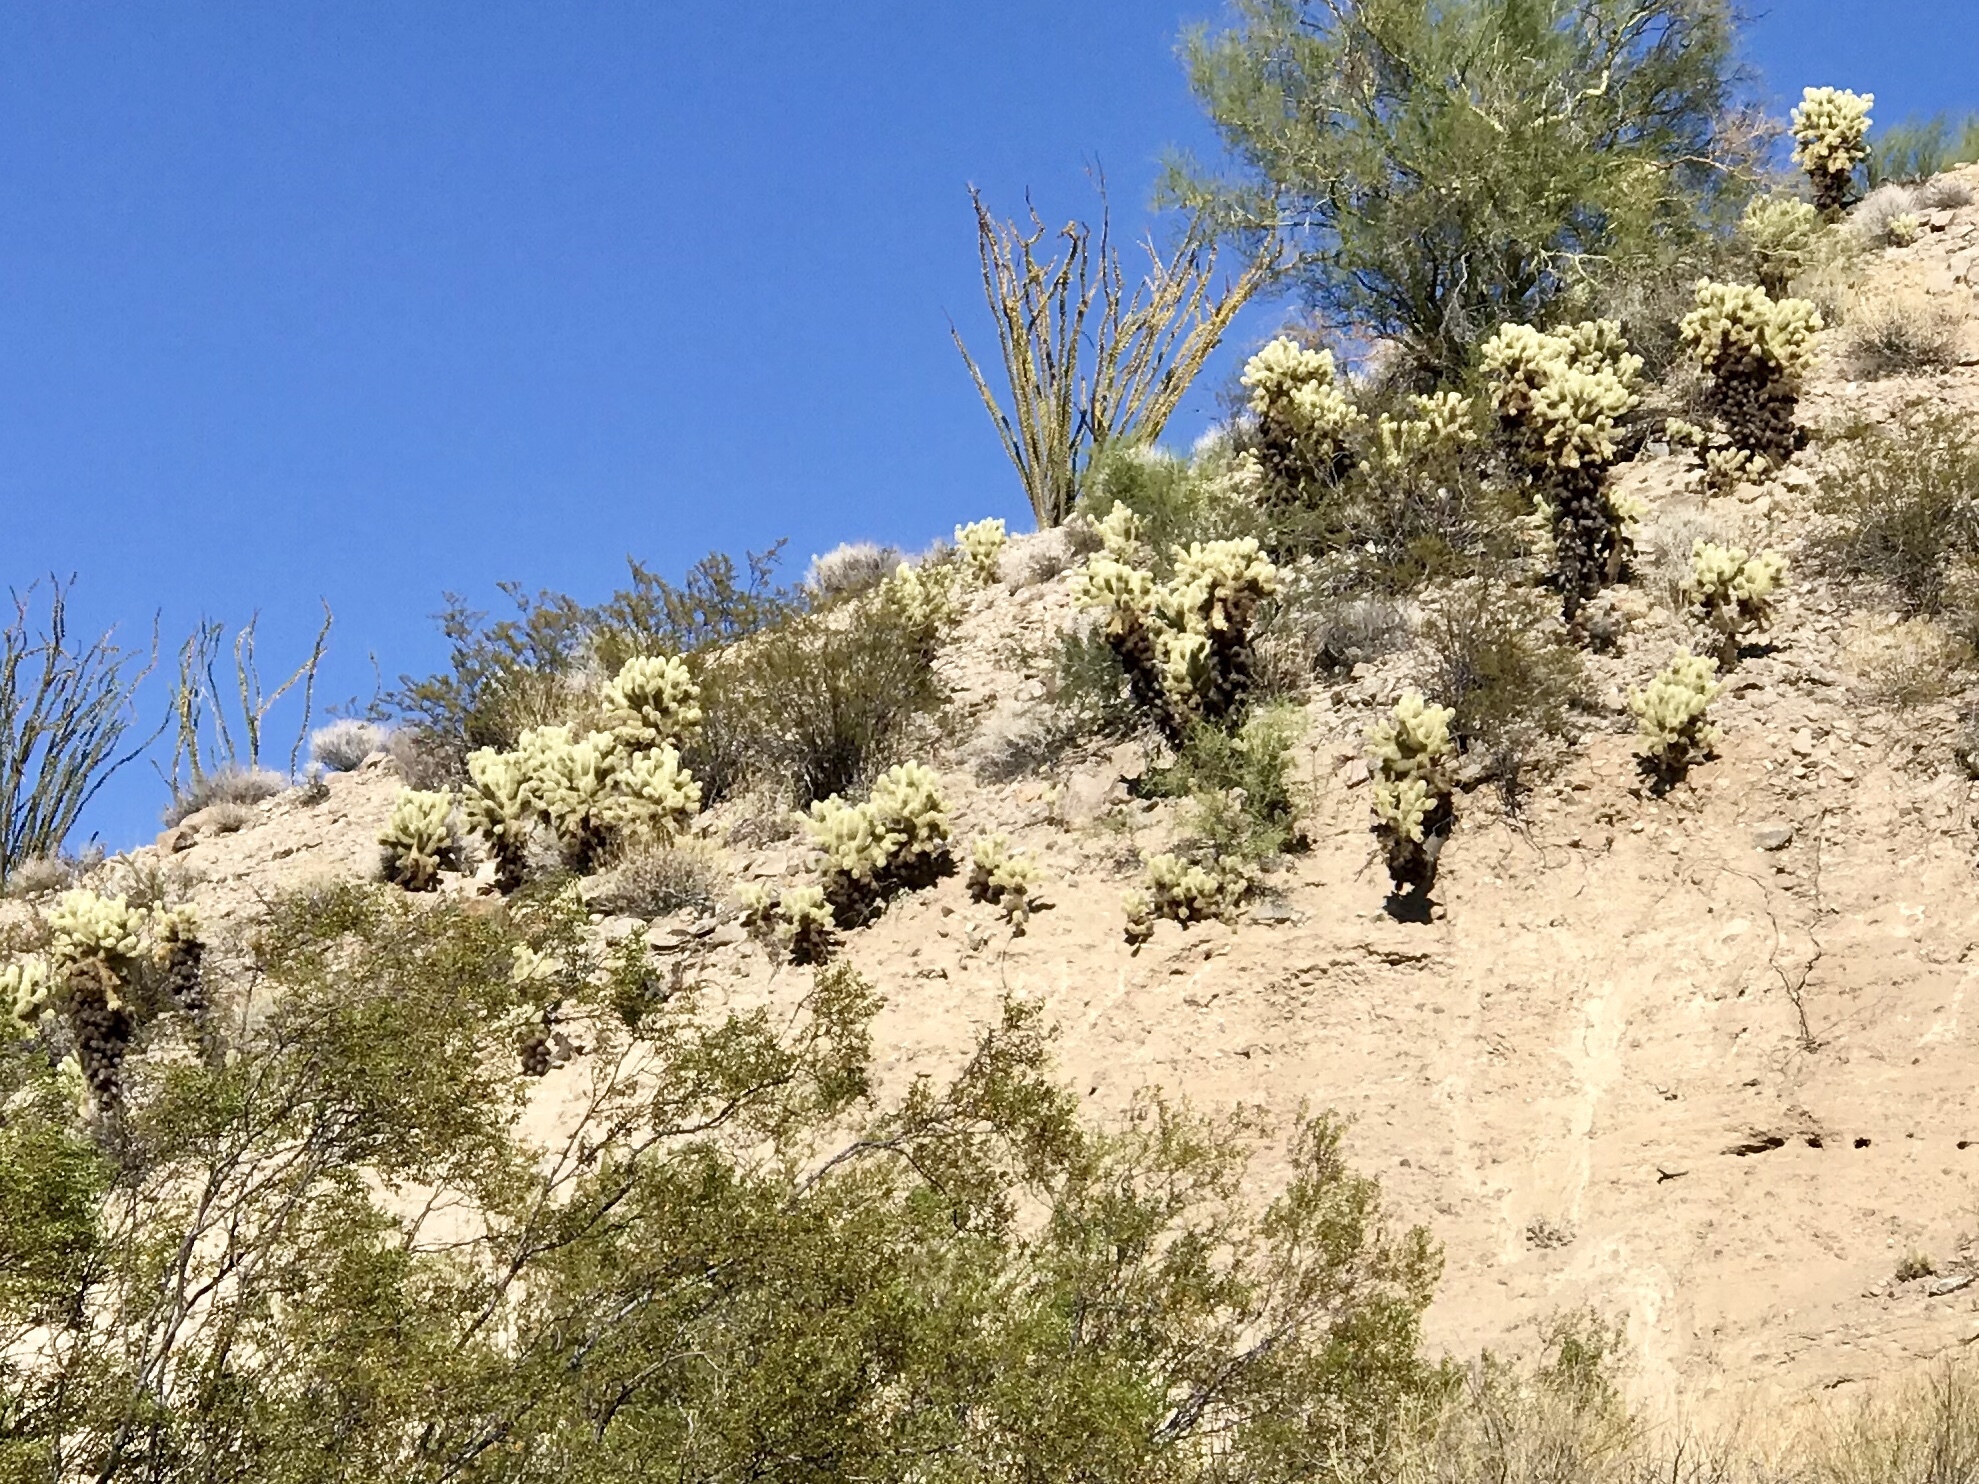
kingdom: Plantae
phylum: Tracheophyta
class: Magnoliopsida
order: Caryophyllales
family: Cactaceae
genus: Cylindropuntia
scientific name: Cylindropuntia fosbergii
